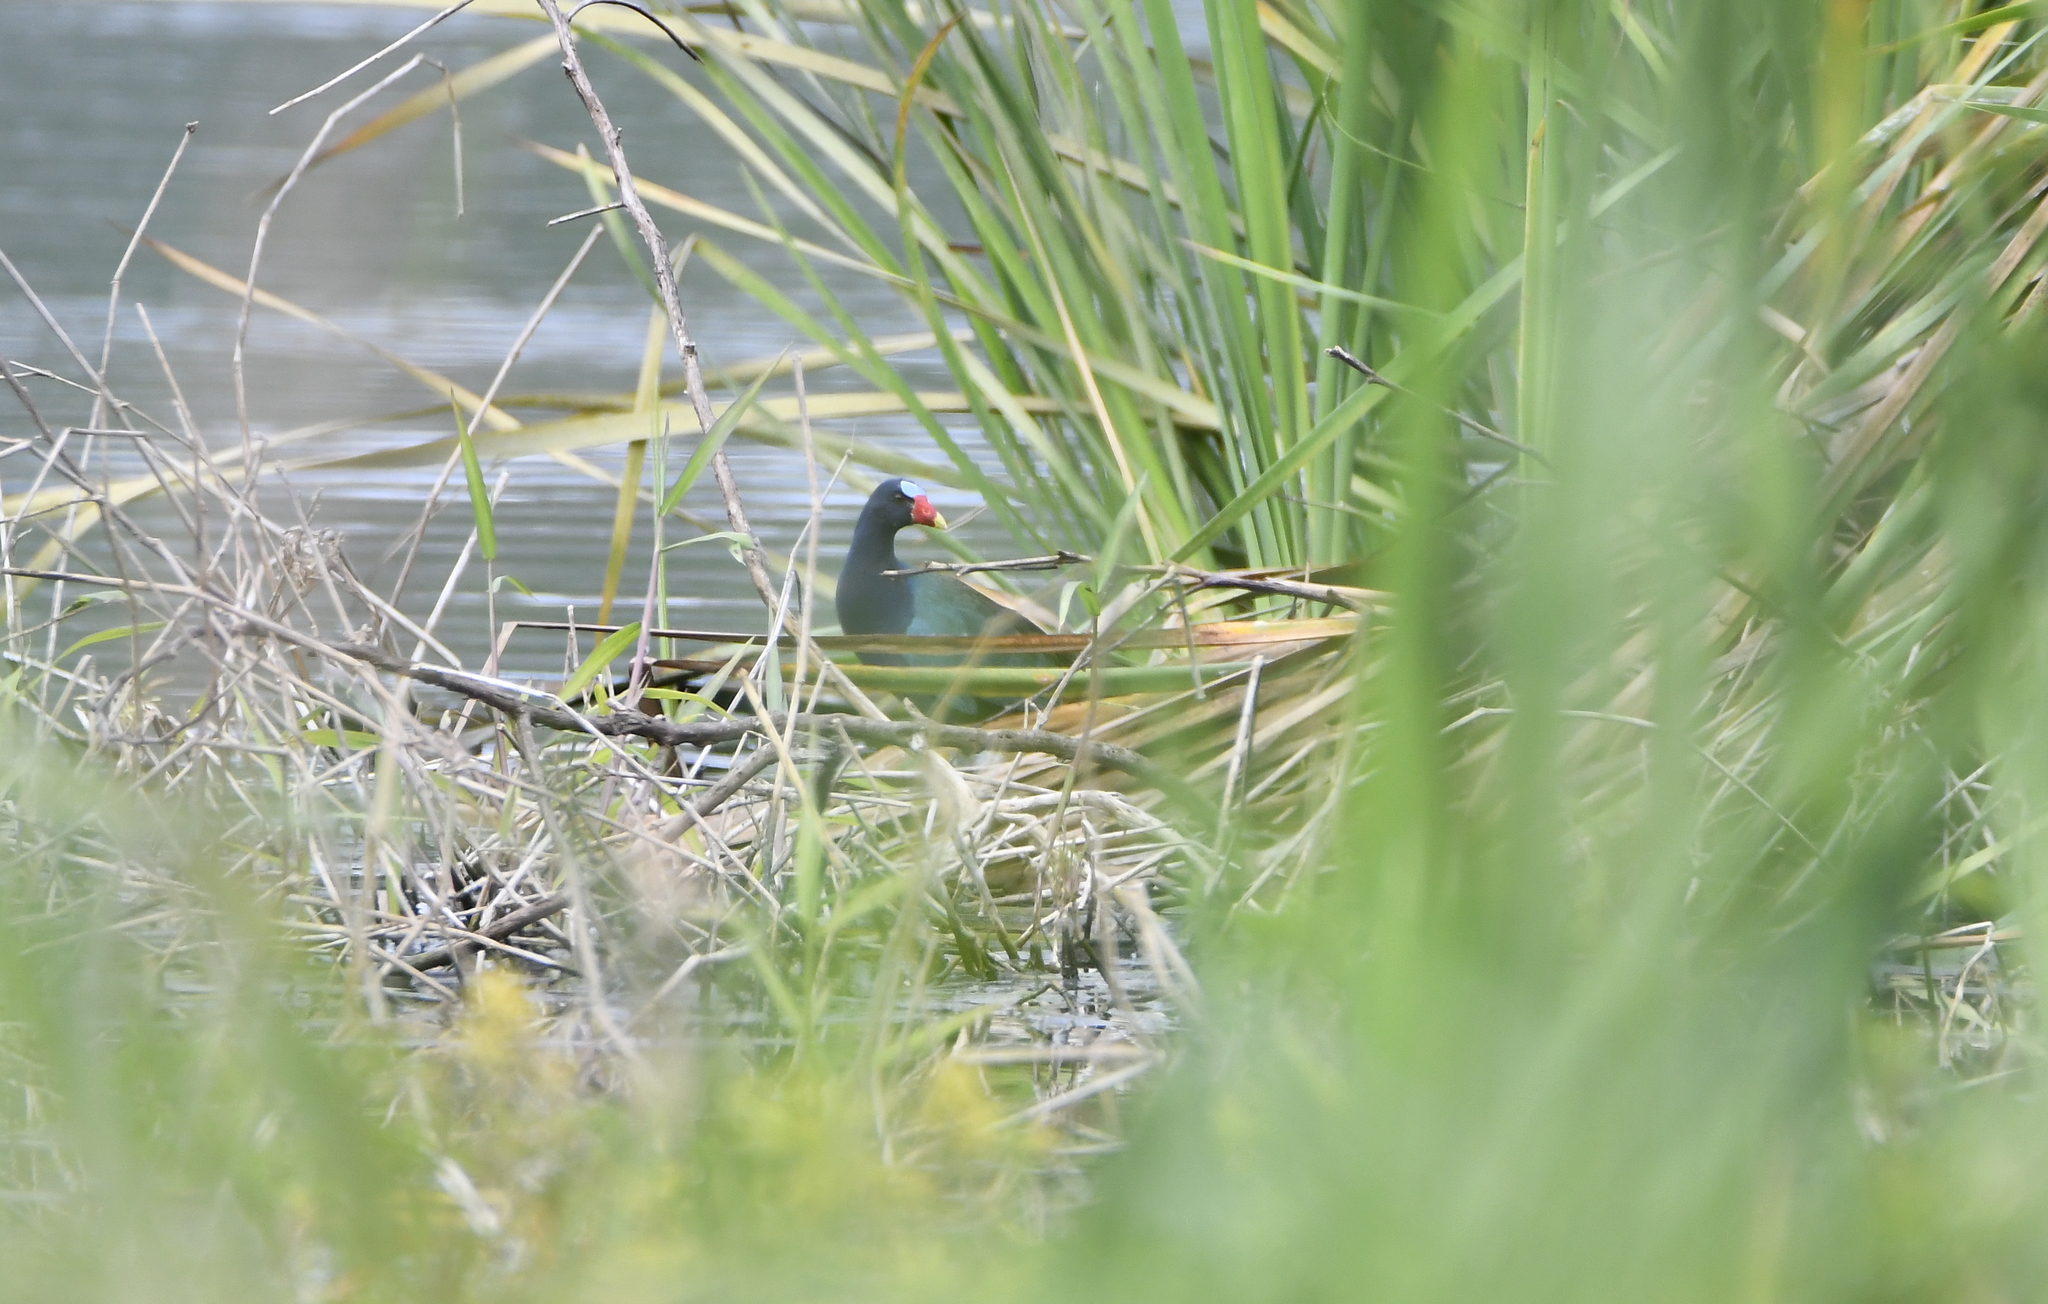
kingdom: Animalia
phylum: Chordata
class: Aves
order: Gruiformes
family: Rallidae
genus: Porphyrio
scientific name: Porphyrio martinica
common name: Purple gallinule
